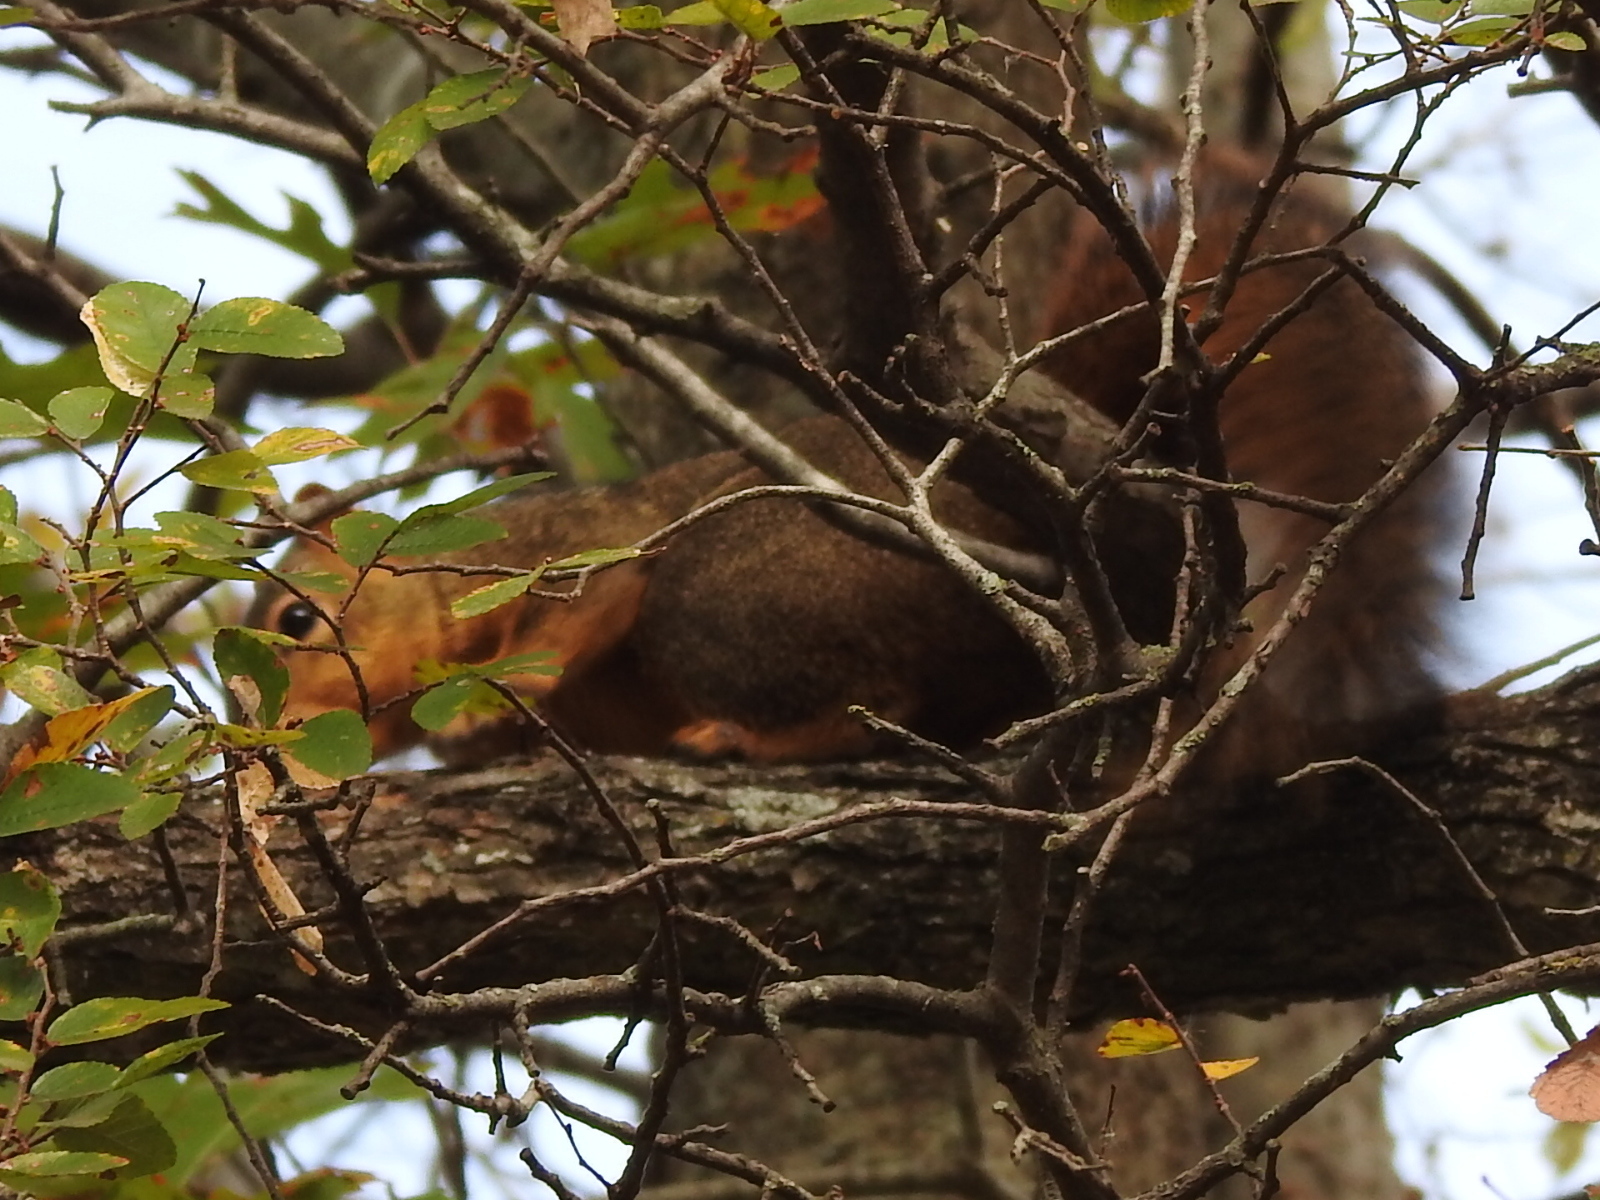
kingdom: Animalia
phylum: Chordata
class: Mammalia
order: Rodentia
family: Sciuridae
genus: Sciurus
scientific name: Sciurus niger
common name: Fox squirrel
